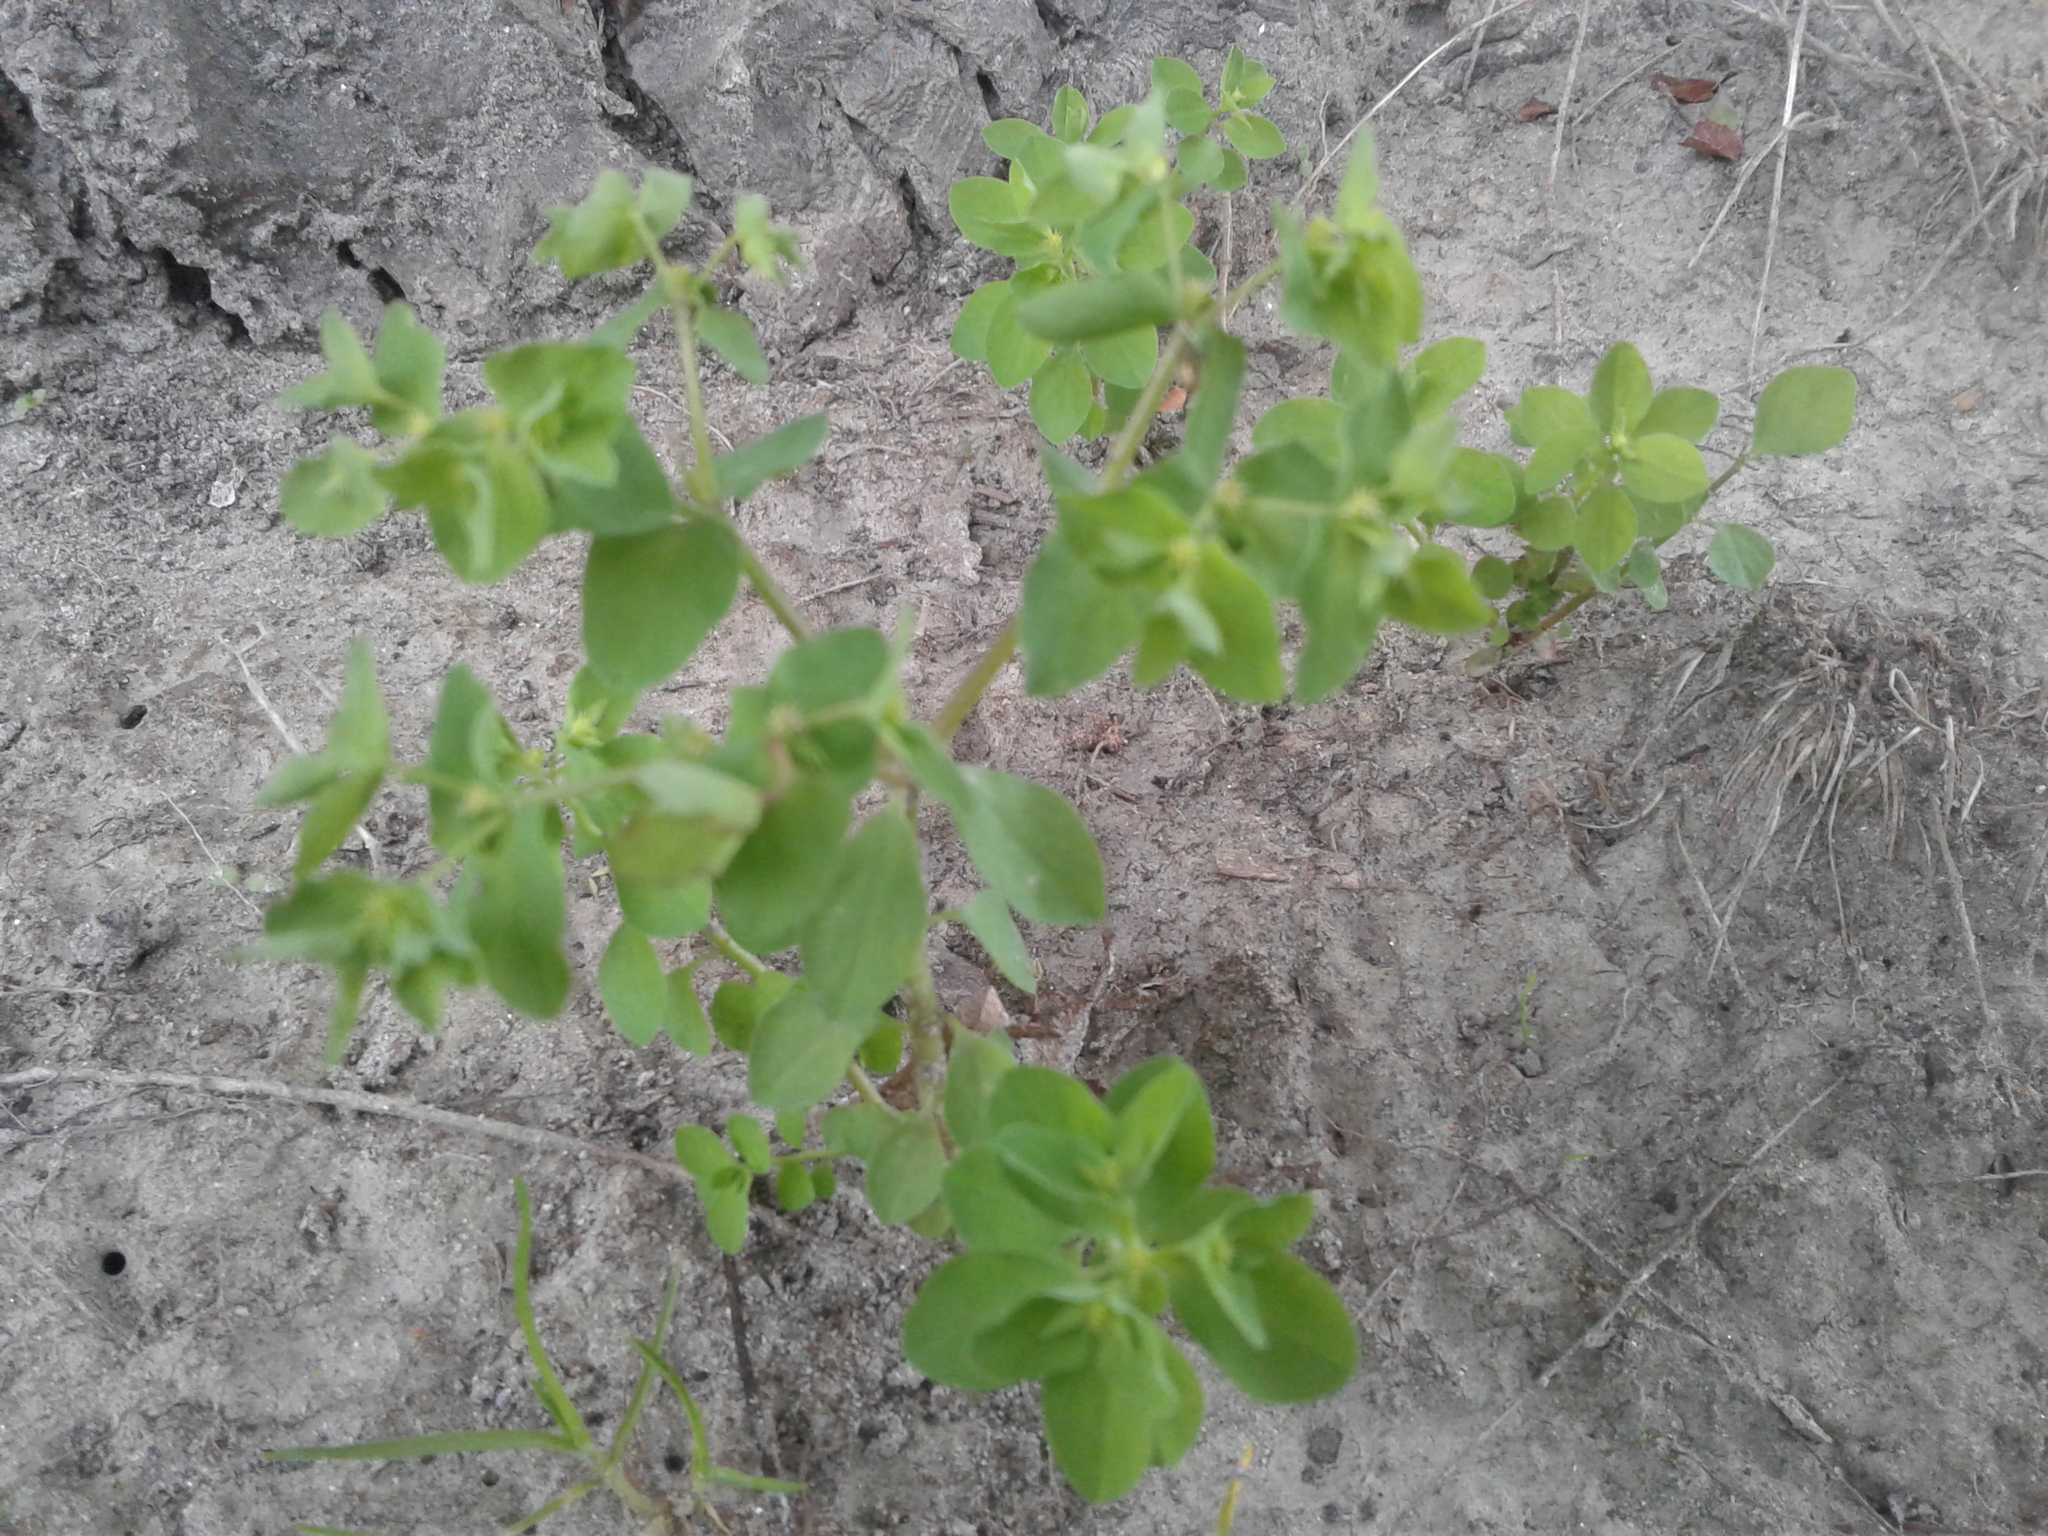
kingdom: Plantae
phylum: Tracheophyta
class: Magnoliopsida
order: Malpighiales
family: Euphorbiaceae
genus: Euphorbia
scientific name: Euphorbia peplus
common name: Petty spurge
